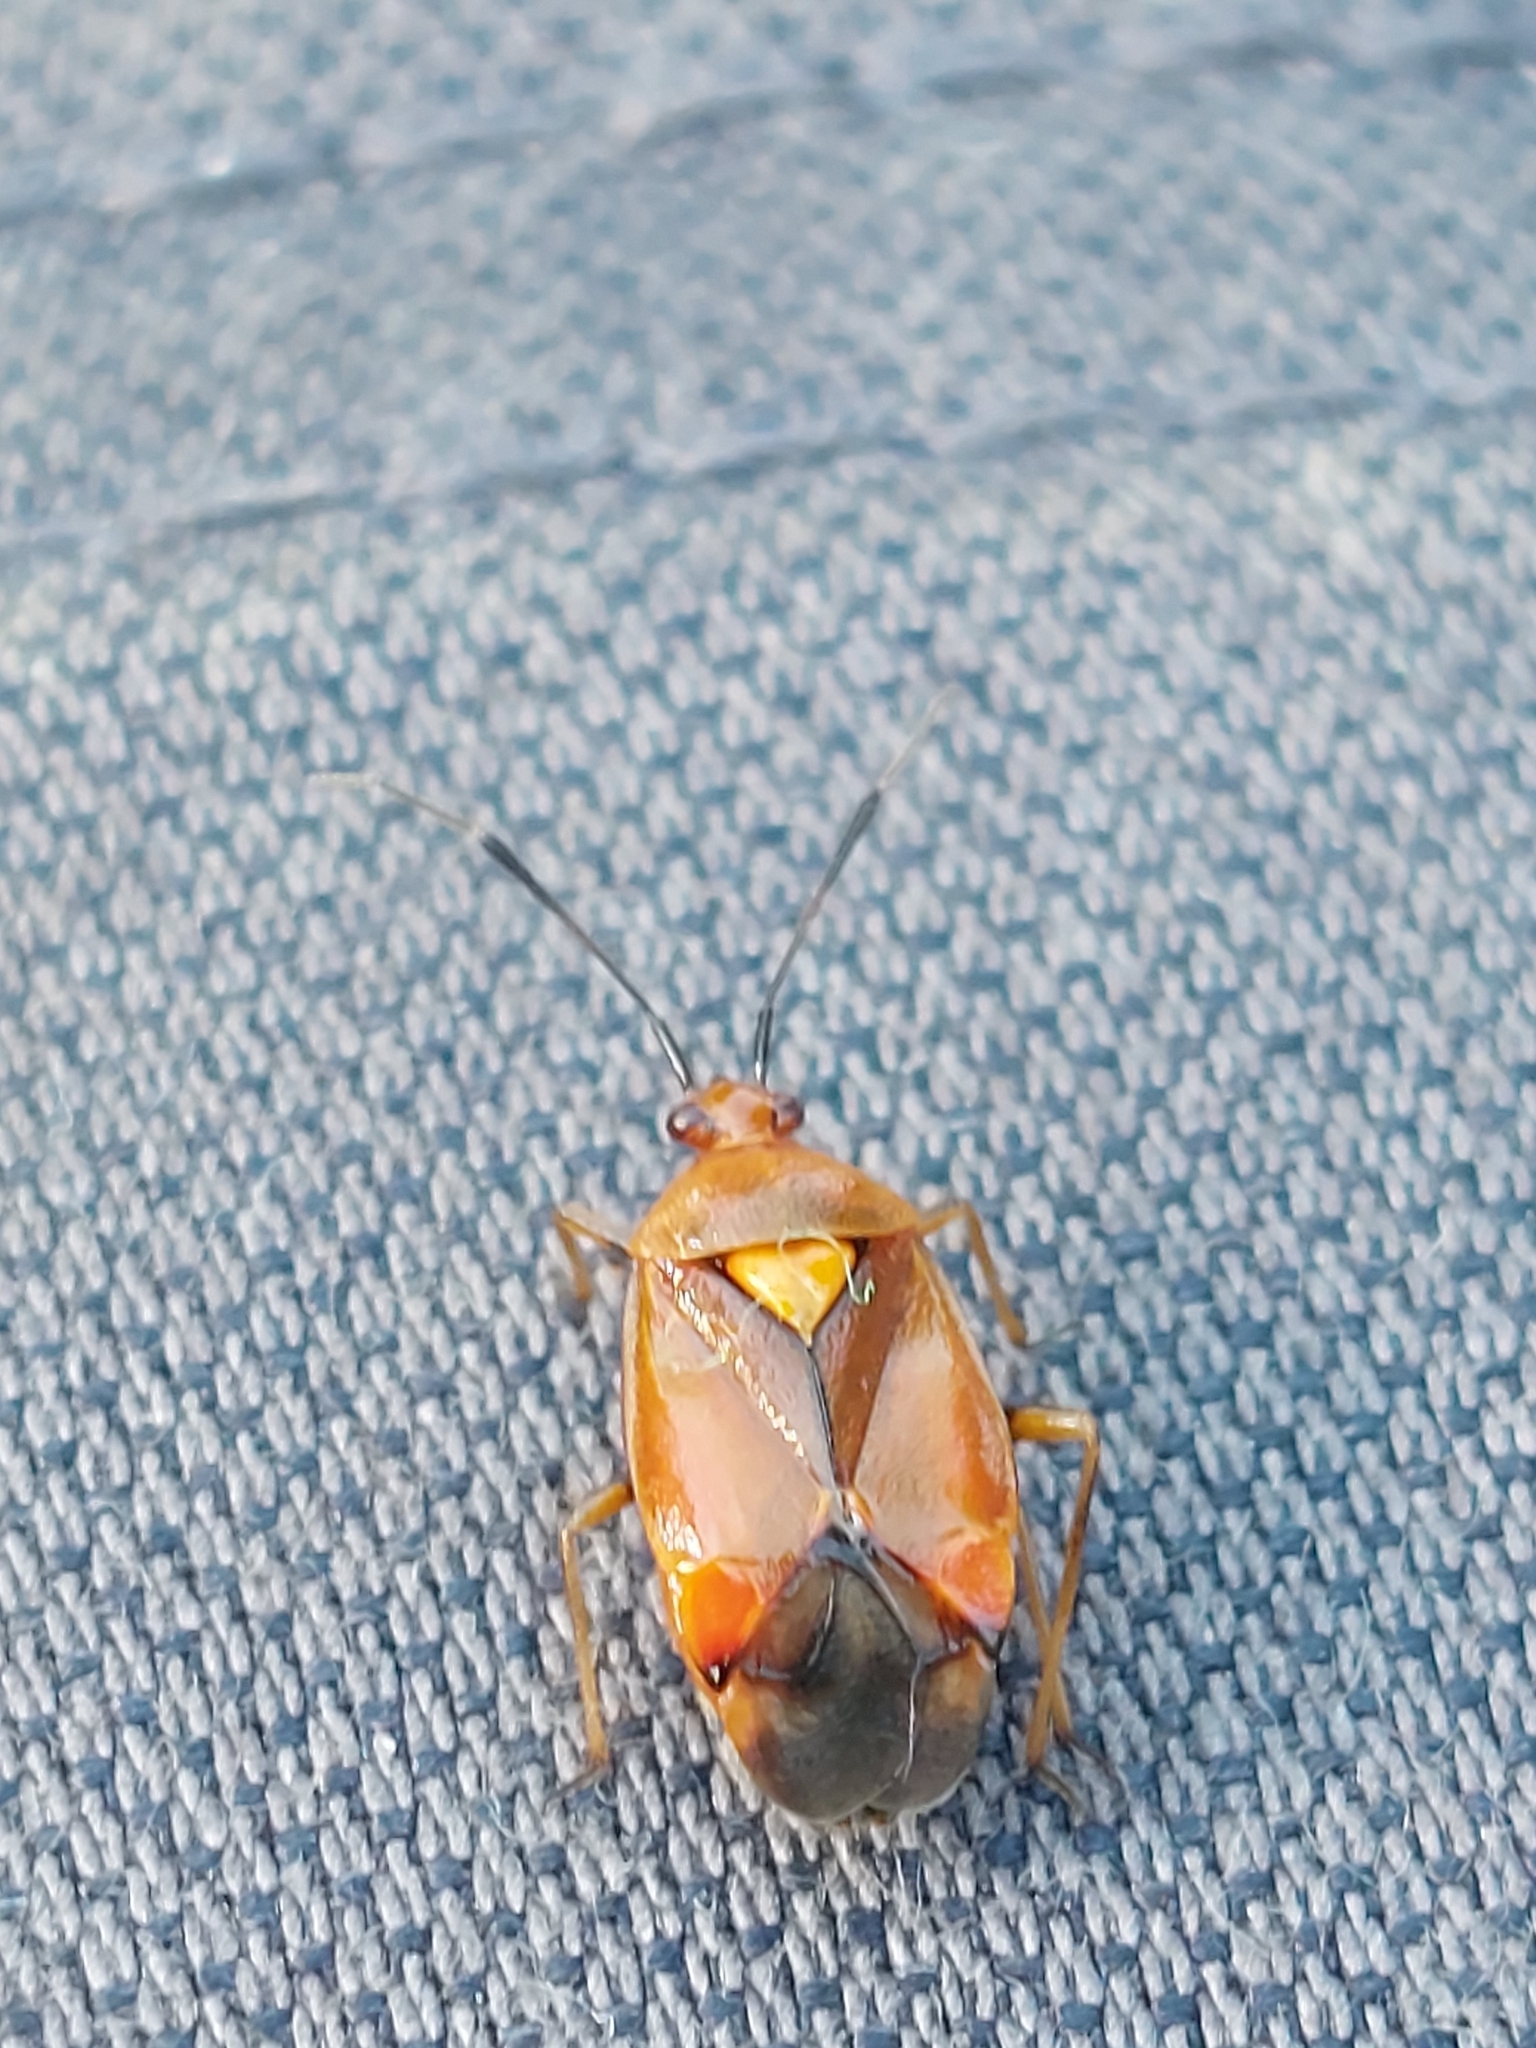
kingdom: Animalia
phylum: Arthropoda
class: Insecta
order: Hemiptera
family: Miridae
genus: Deraeocoris
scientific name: Deraeocoris ruber
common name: Plant bug
